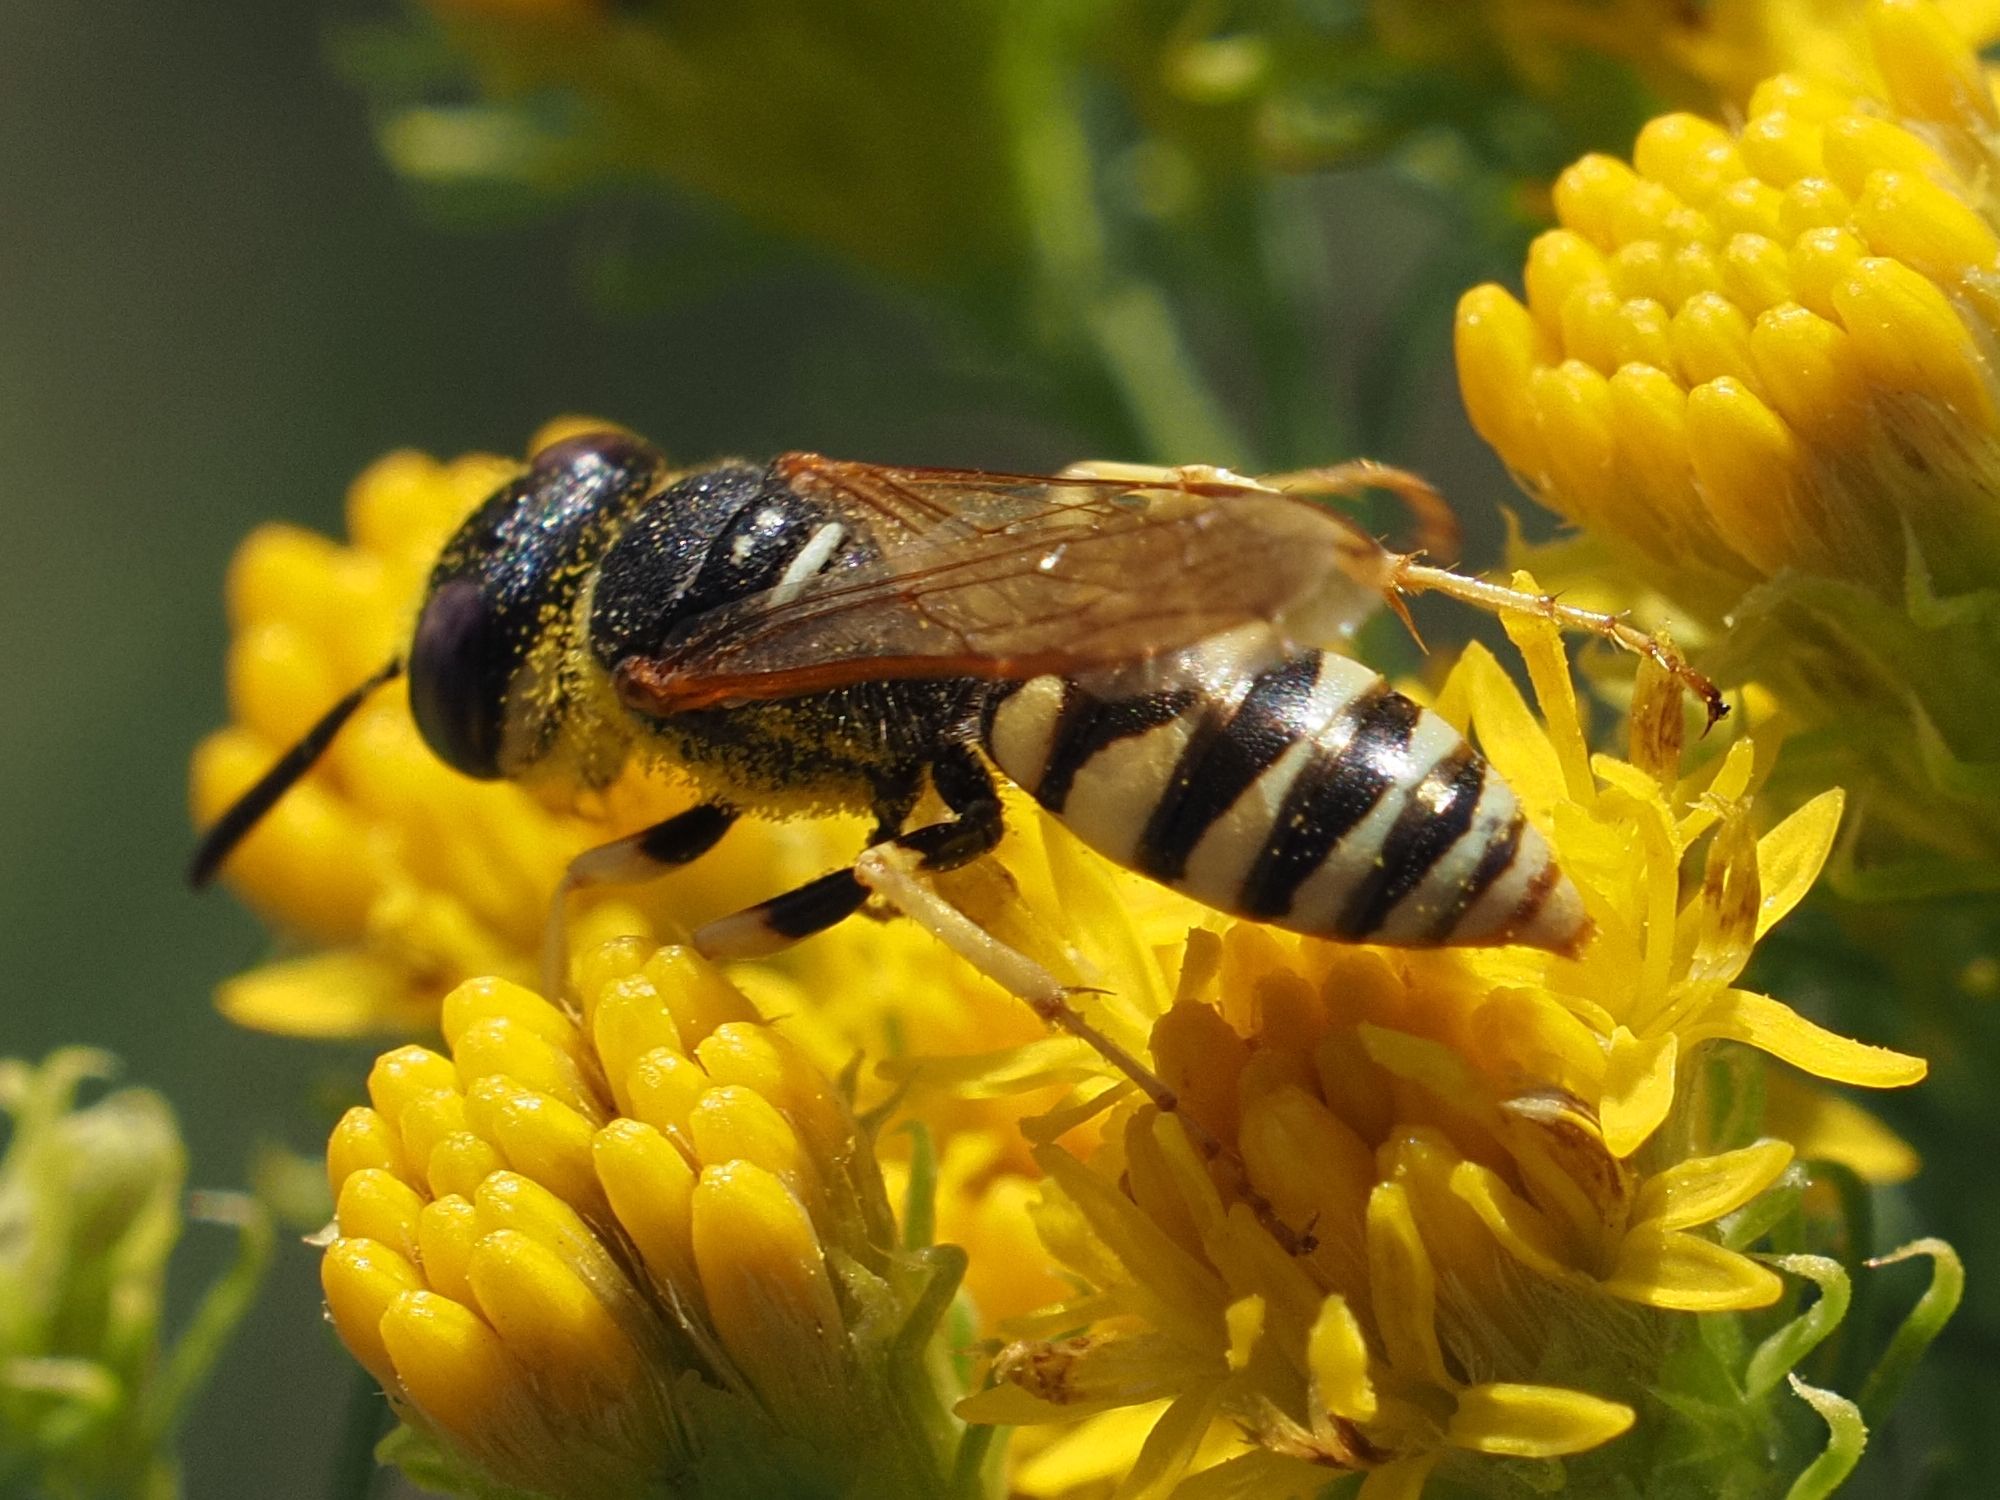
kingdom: Animalia
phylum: Arthropoda
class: Insecta
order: Hymenoptera
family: Crabronidae
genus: Philanthus
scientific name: Philanthus triangulum
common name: Bee wolf
